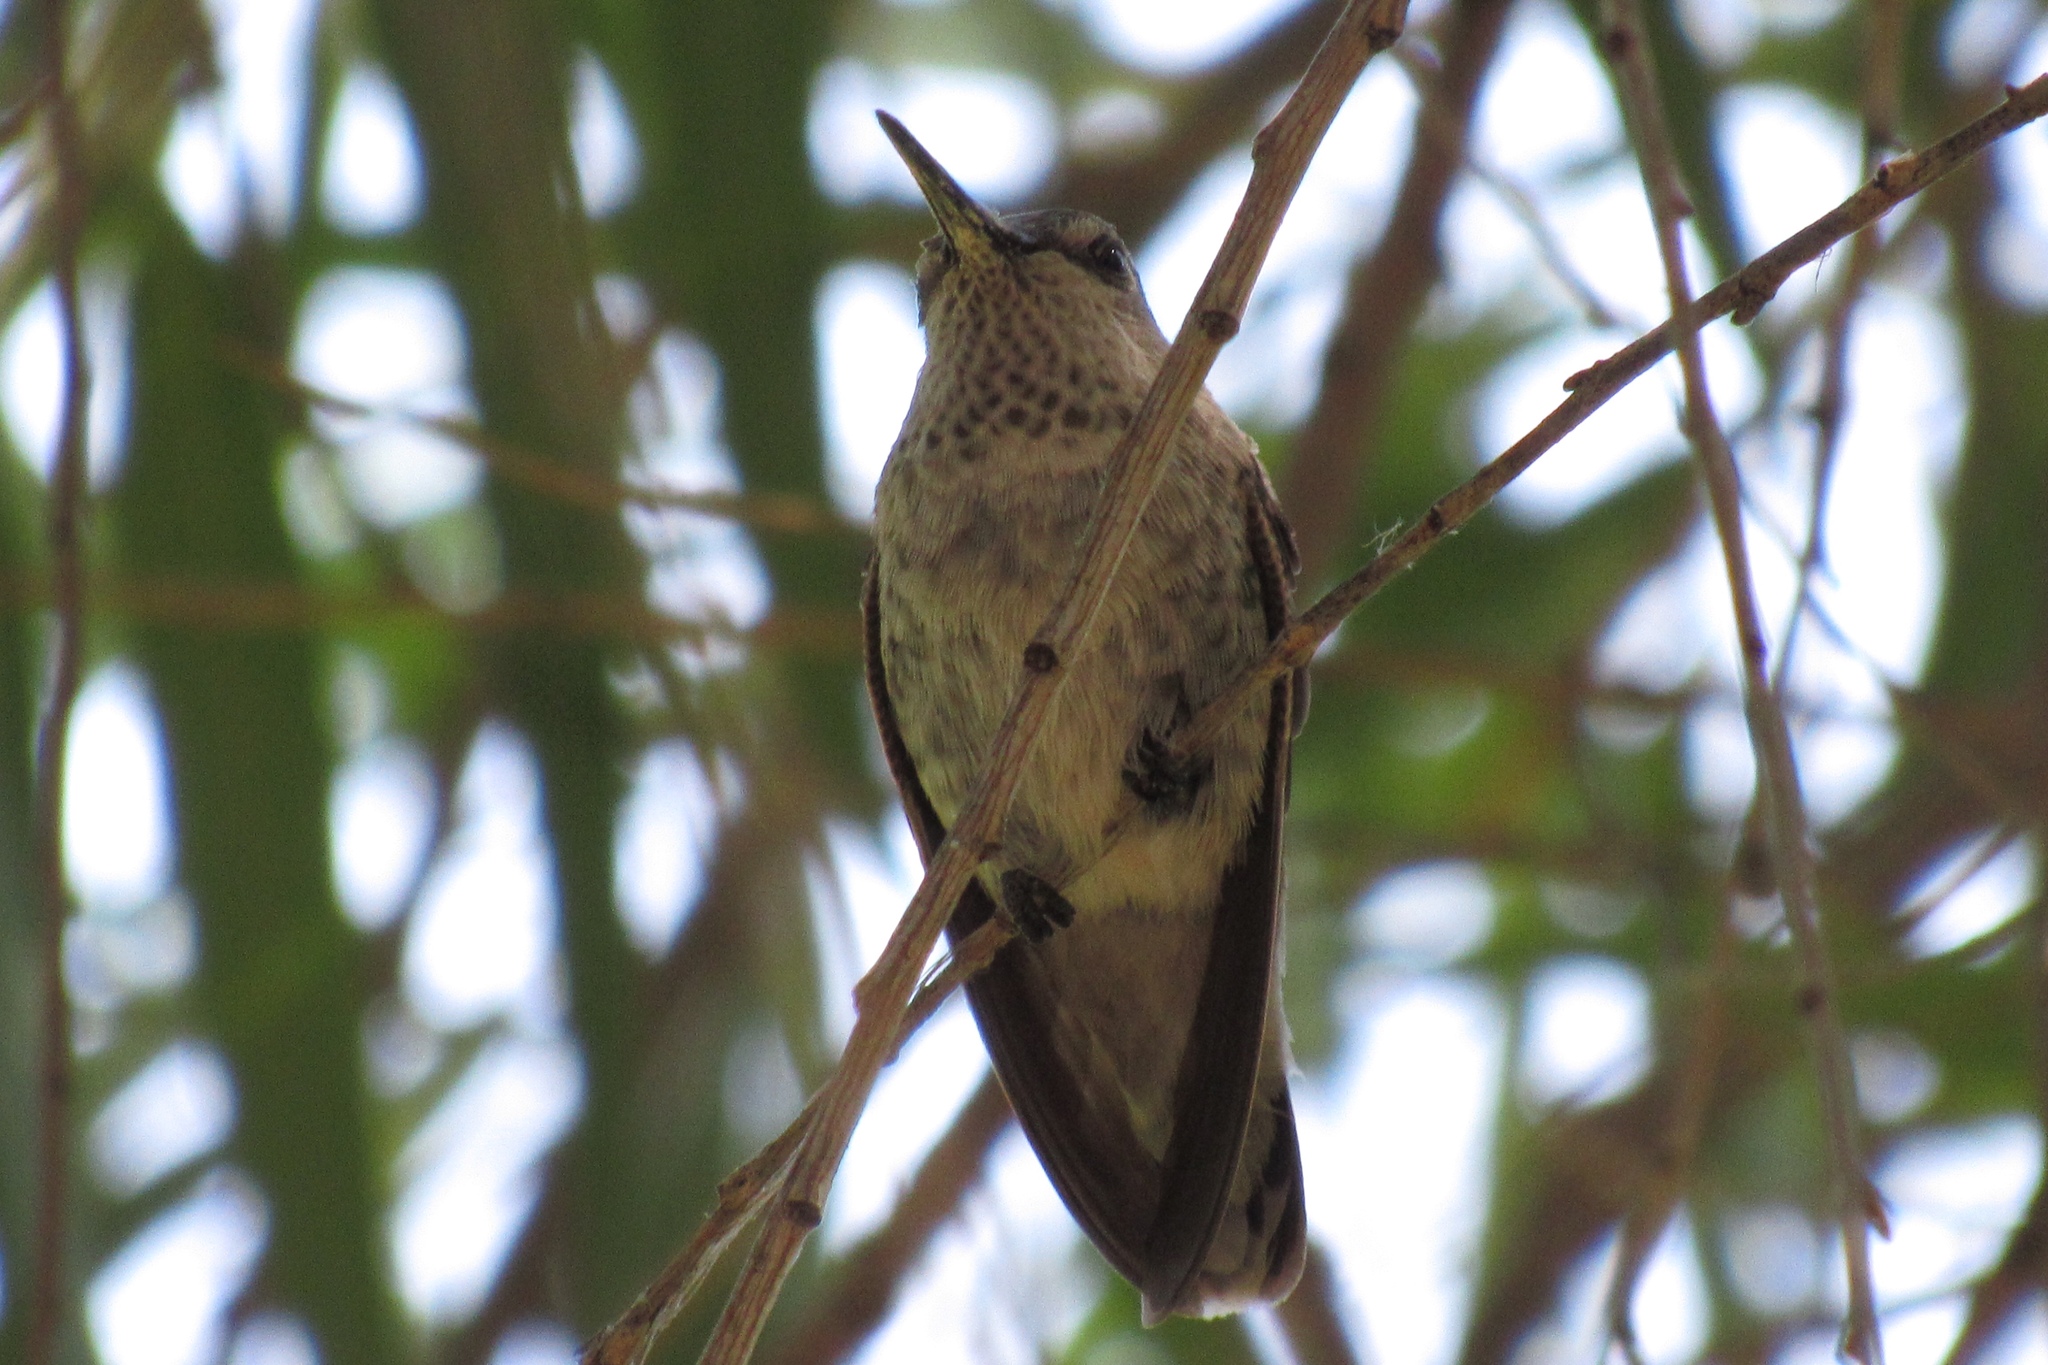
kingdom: Animalia
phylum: Chordata
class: Aves
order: Apodiformes
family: Trochilidae
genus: Calypte
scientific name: Calypte anna
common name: Anna's hummingbird
